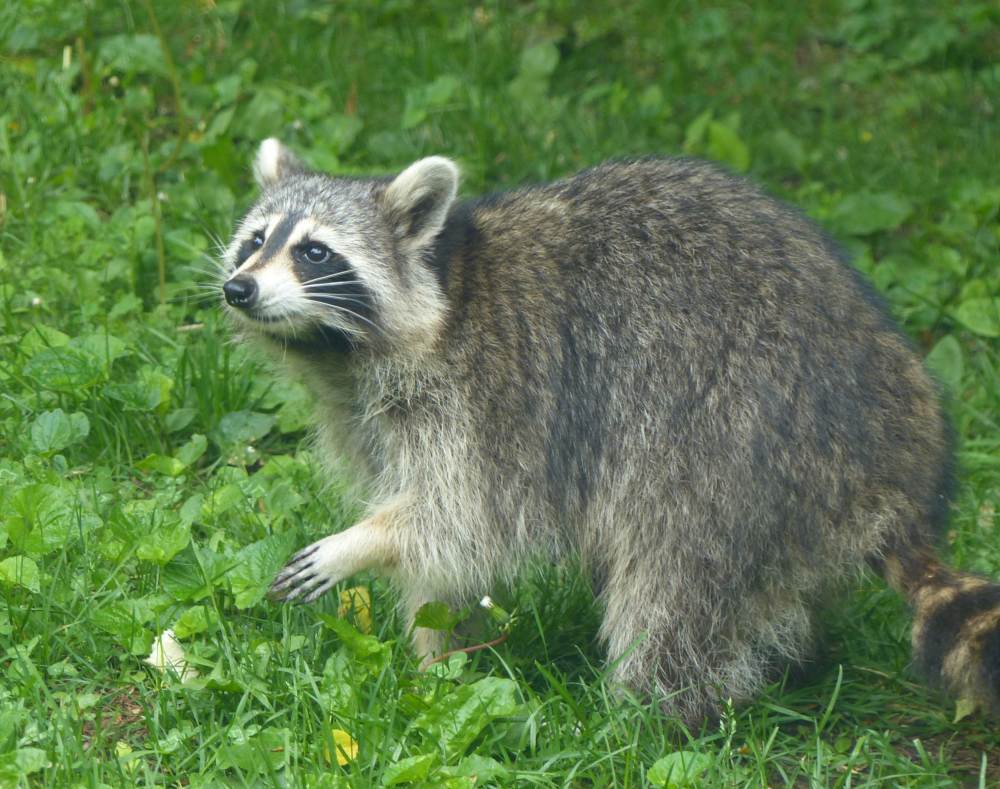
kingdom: Animalia
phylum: Chordata
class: Mammalia
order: Carnivora
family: Procyonidae
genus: Procyon
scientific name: Procyon lotor
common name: Raccoon
